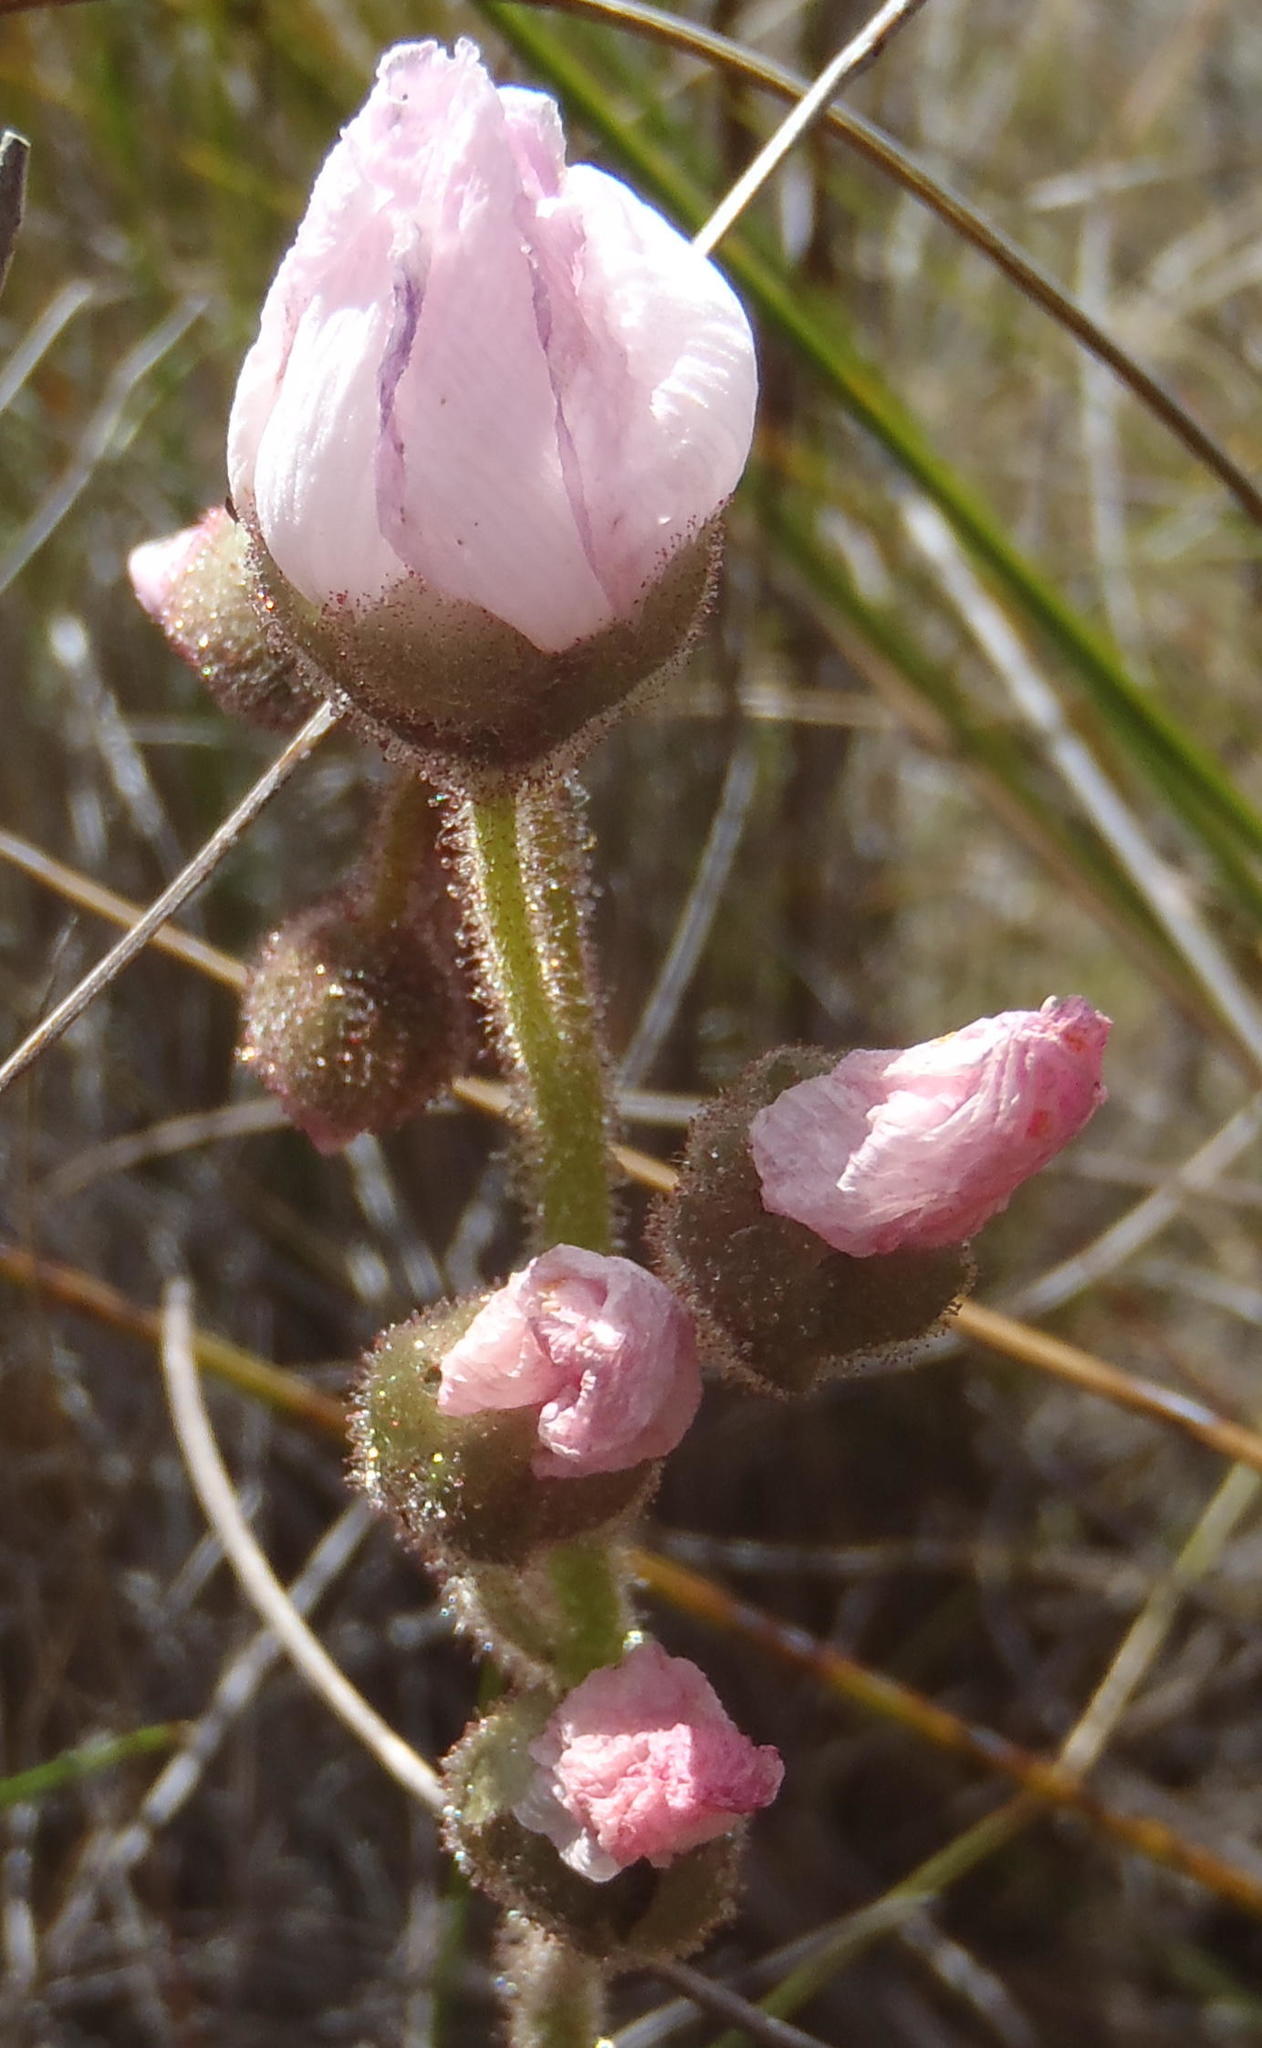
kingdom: Plantae
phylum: Tracheophyta
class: Magnoliopsida
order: Caryophyllales
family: Droseraceae
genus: Drosera
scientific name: Drosera cistiflora
